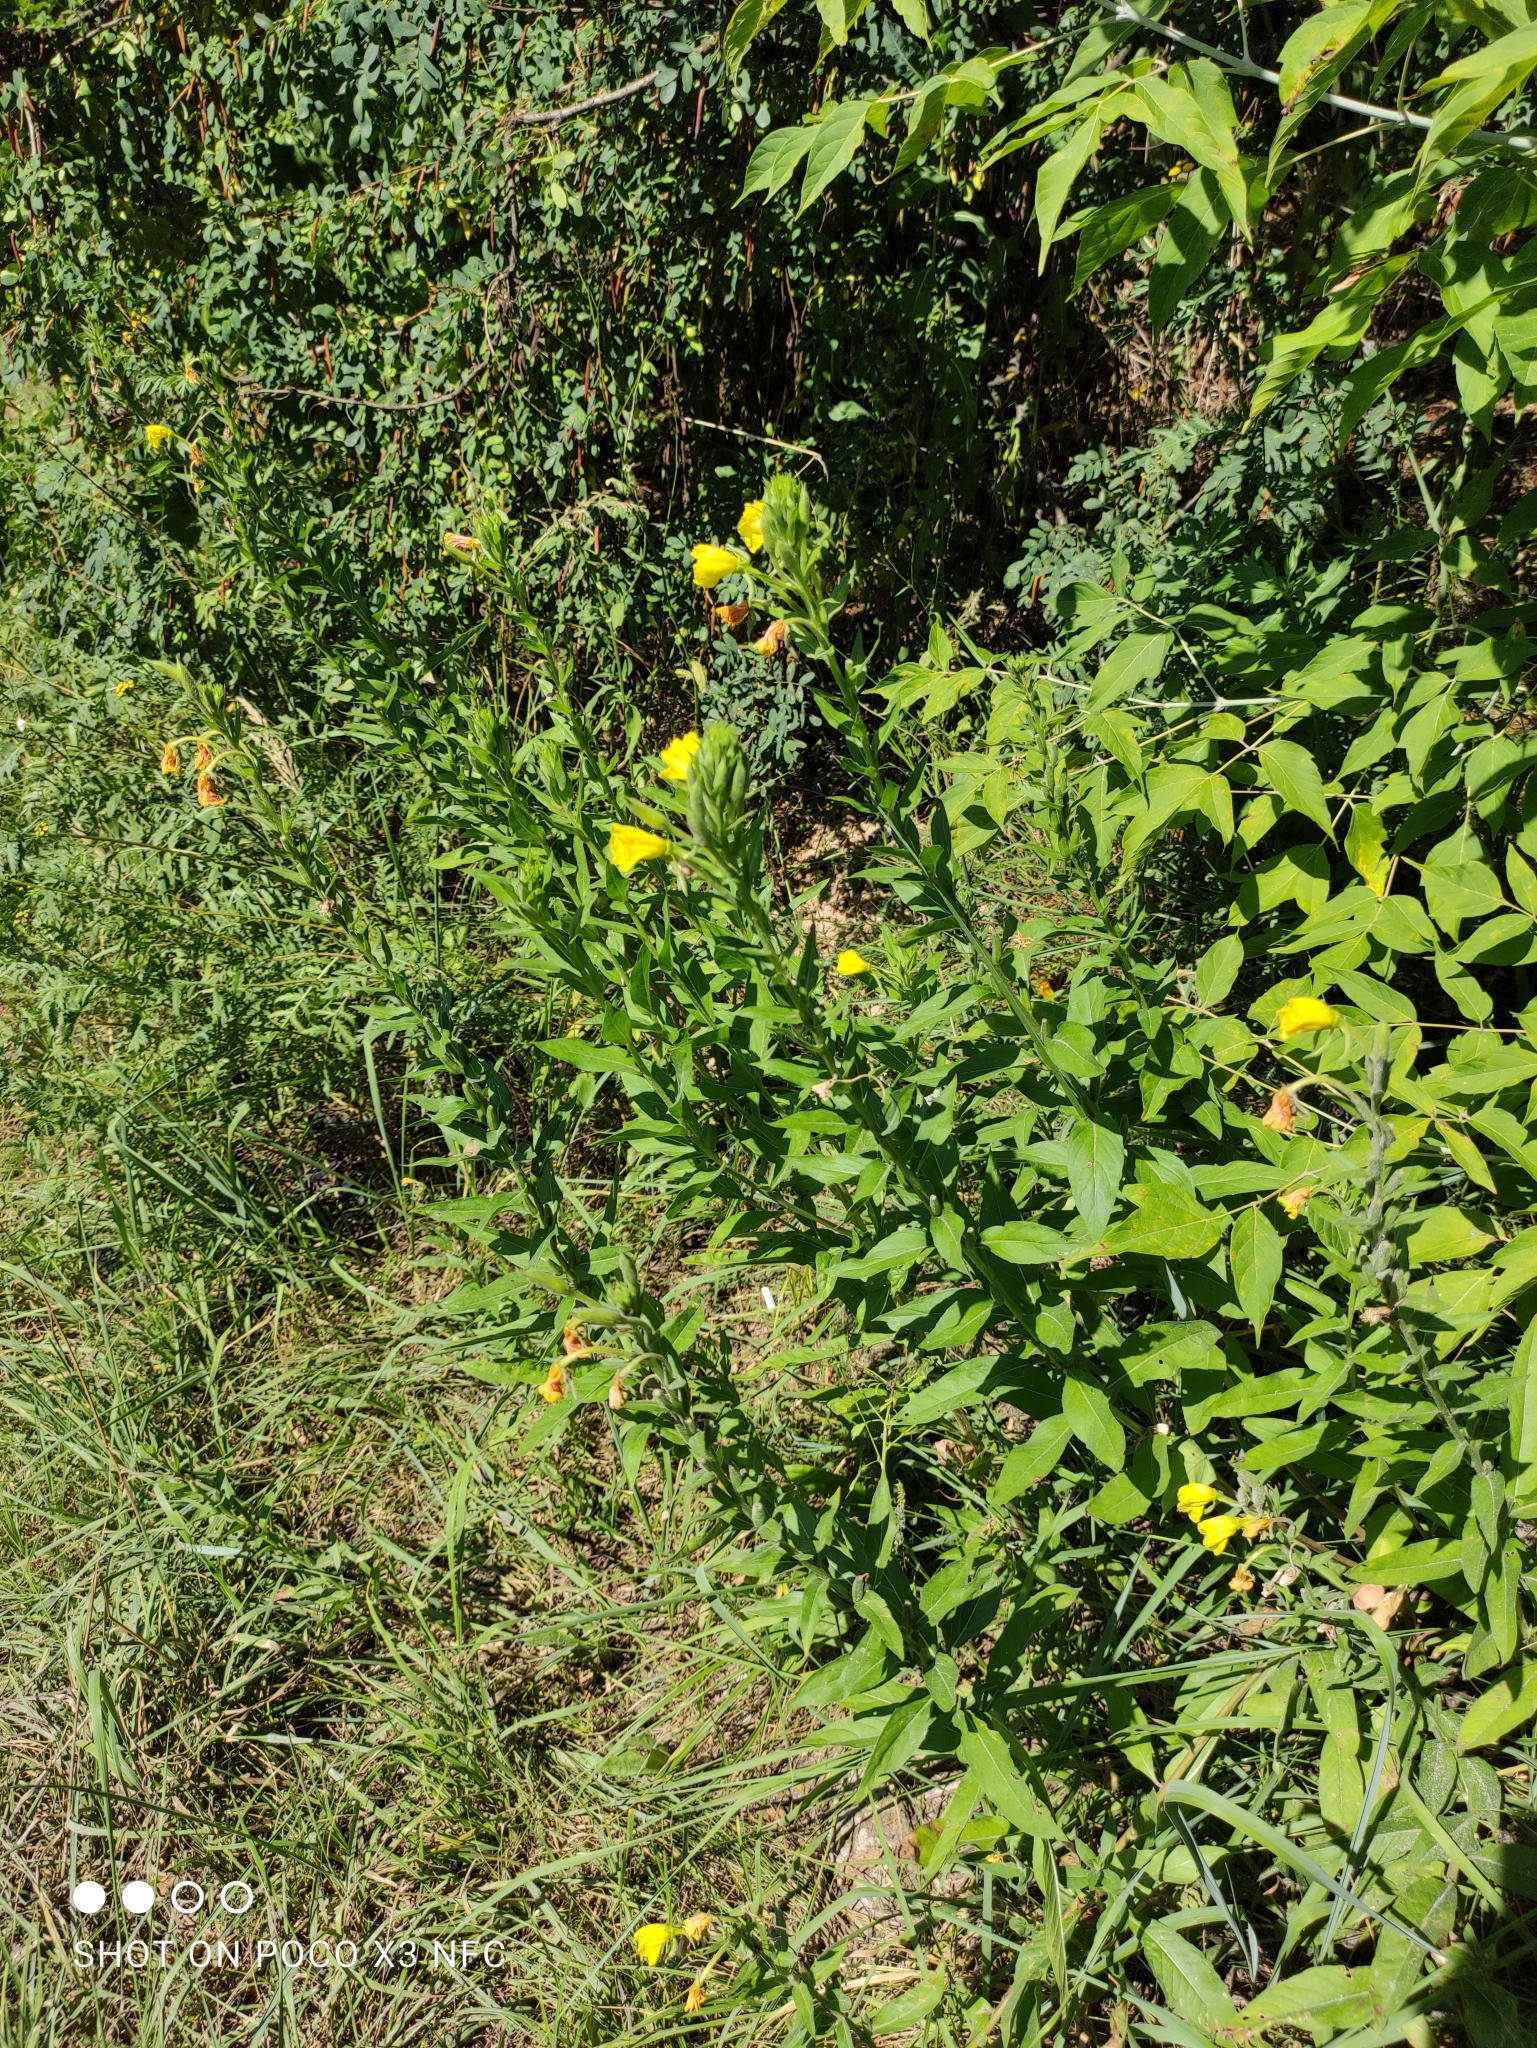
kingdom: Plantae
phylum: Tracheophyta
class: Magnoliopsida
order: Myrtales
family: Onagraceae
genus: Oenothera
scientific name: Oenothera biennis
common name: Common evening-primrose
